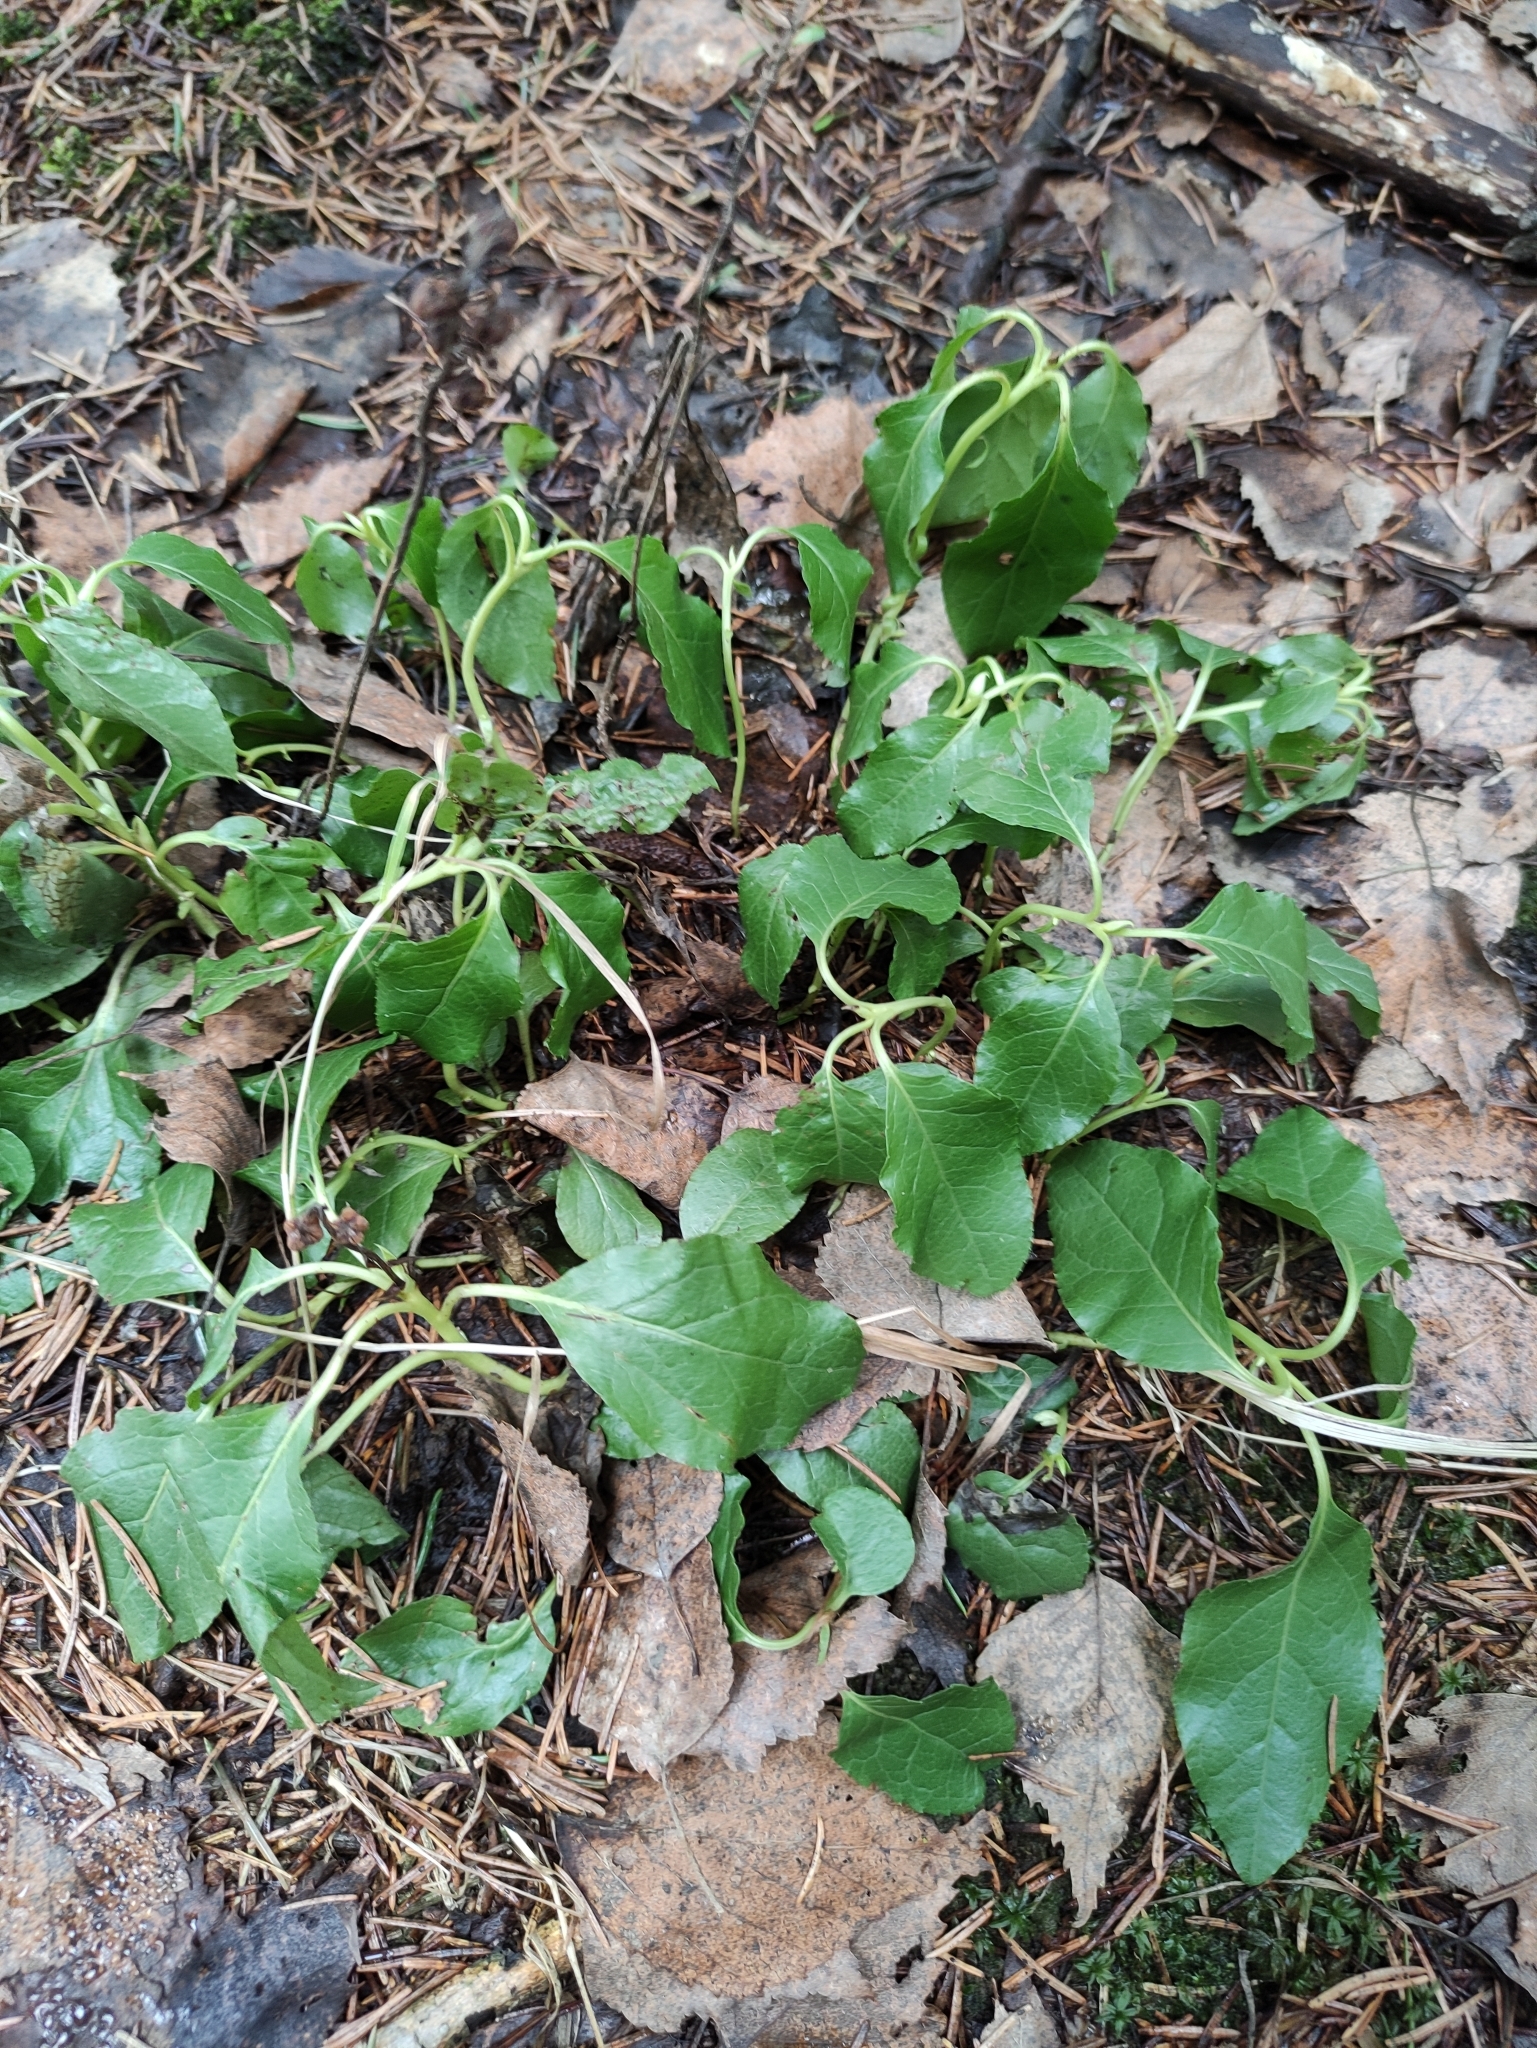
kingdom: Plantae
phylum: Tracheophyta
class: Magnoliopsida
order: Ericales
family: Ericaceae
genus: Orthilia
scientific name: Orthilia secunda
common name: One-sided orthilia
